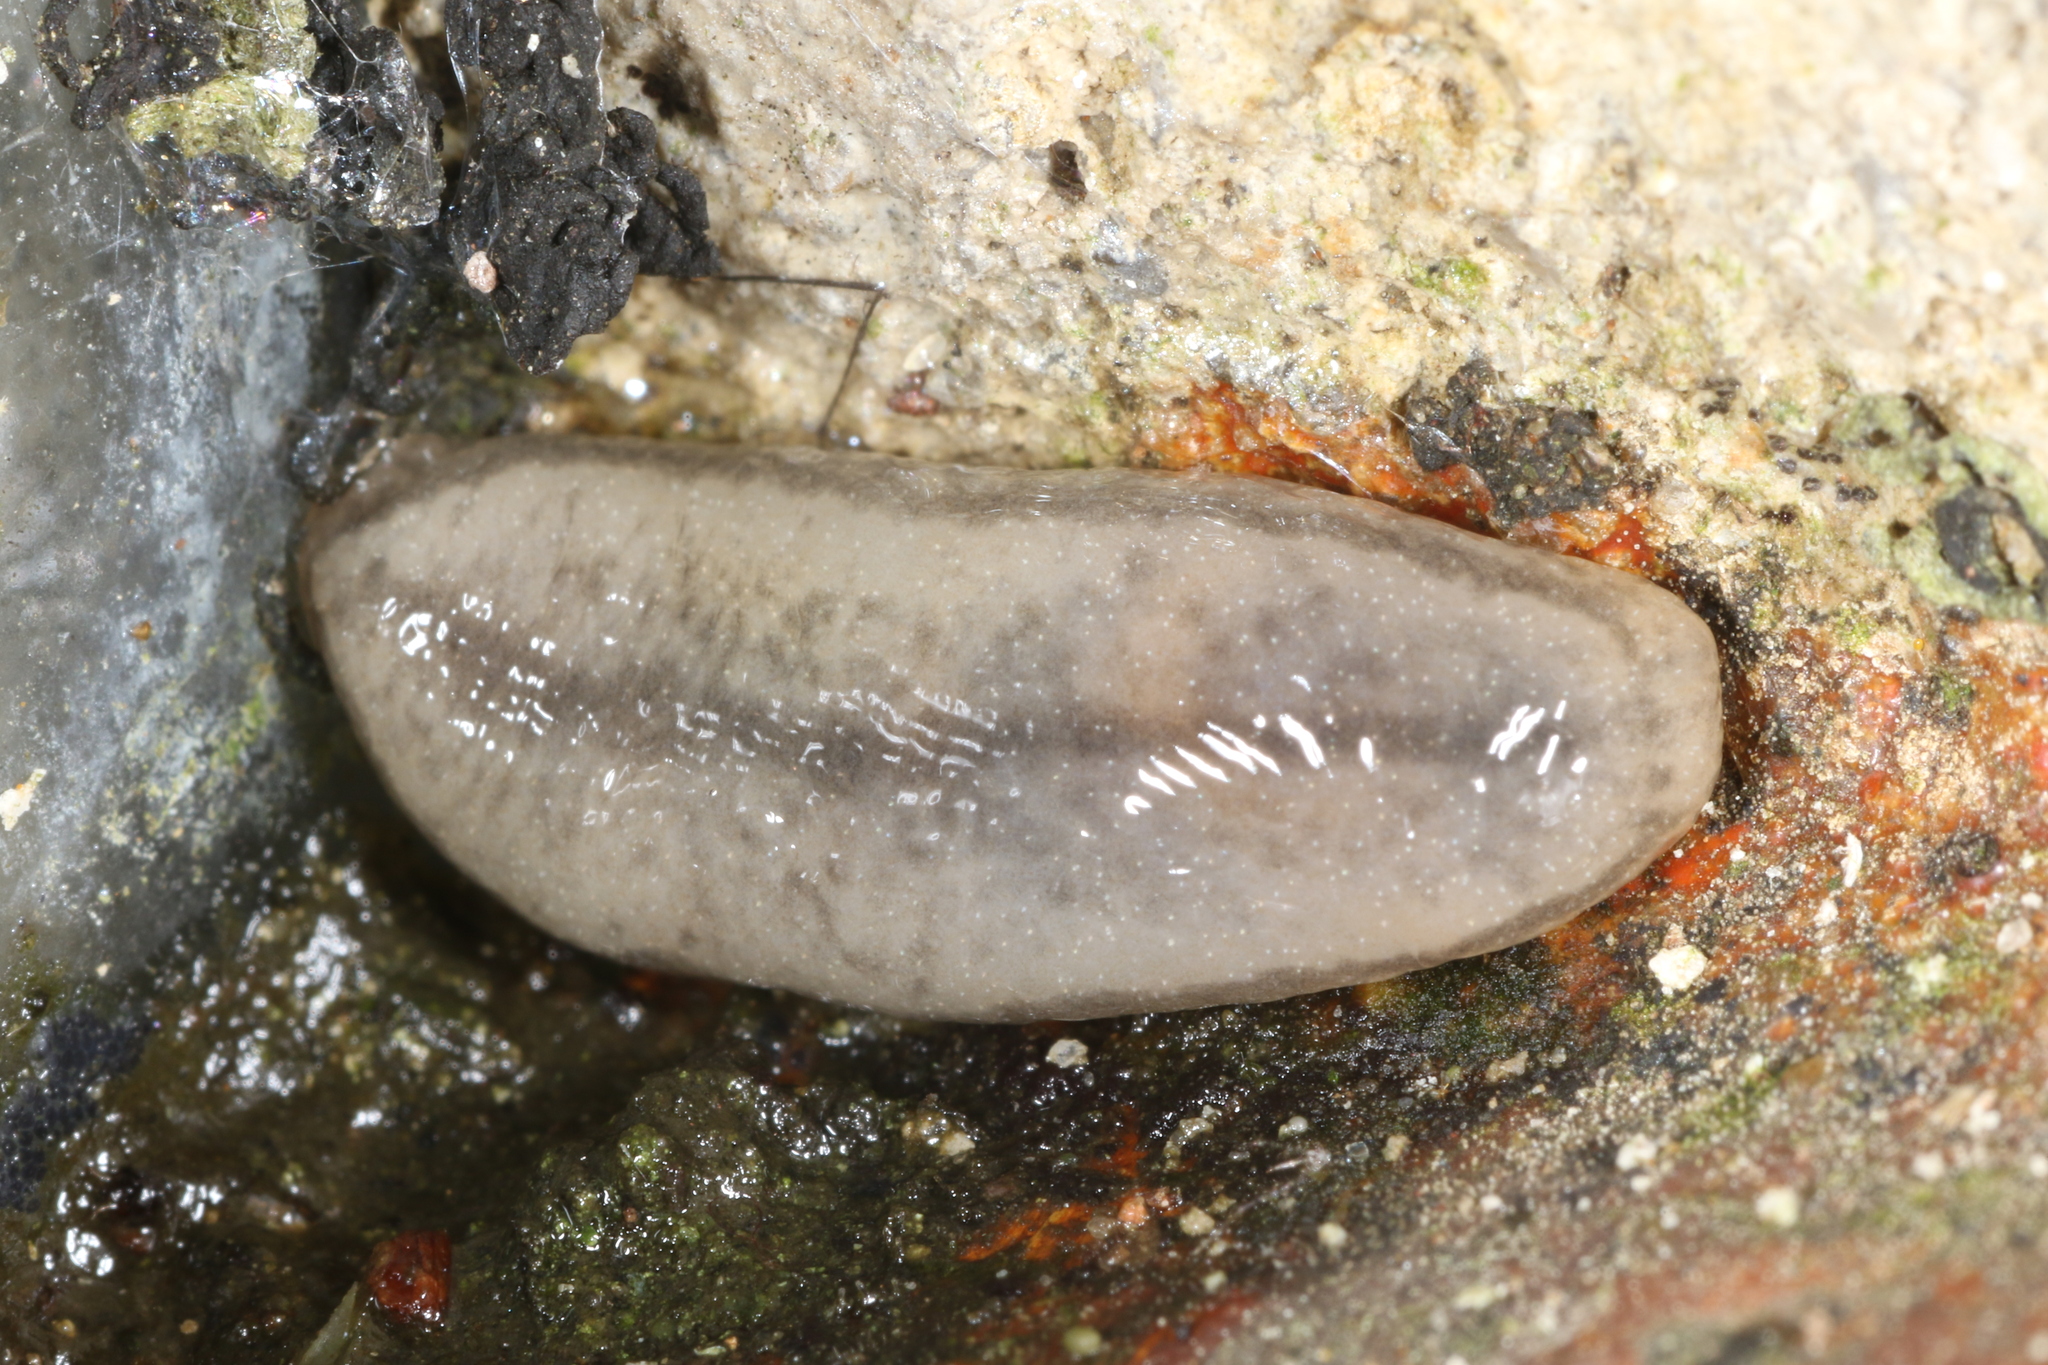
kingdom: Animalia
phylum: Mollusca
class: Gastropoda
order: Stylommatophora
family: Philomycidae
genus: Meghimatium
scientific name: Meghimatium pictum
